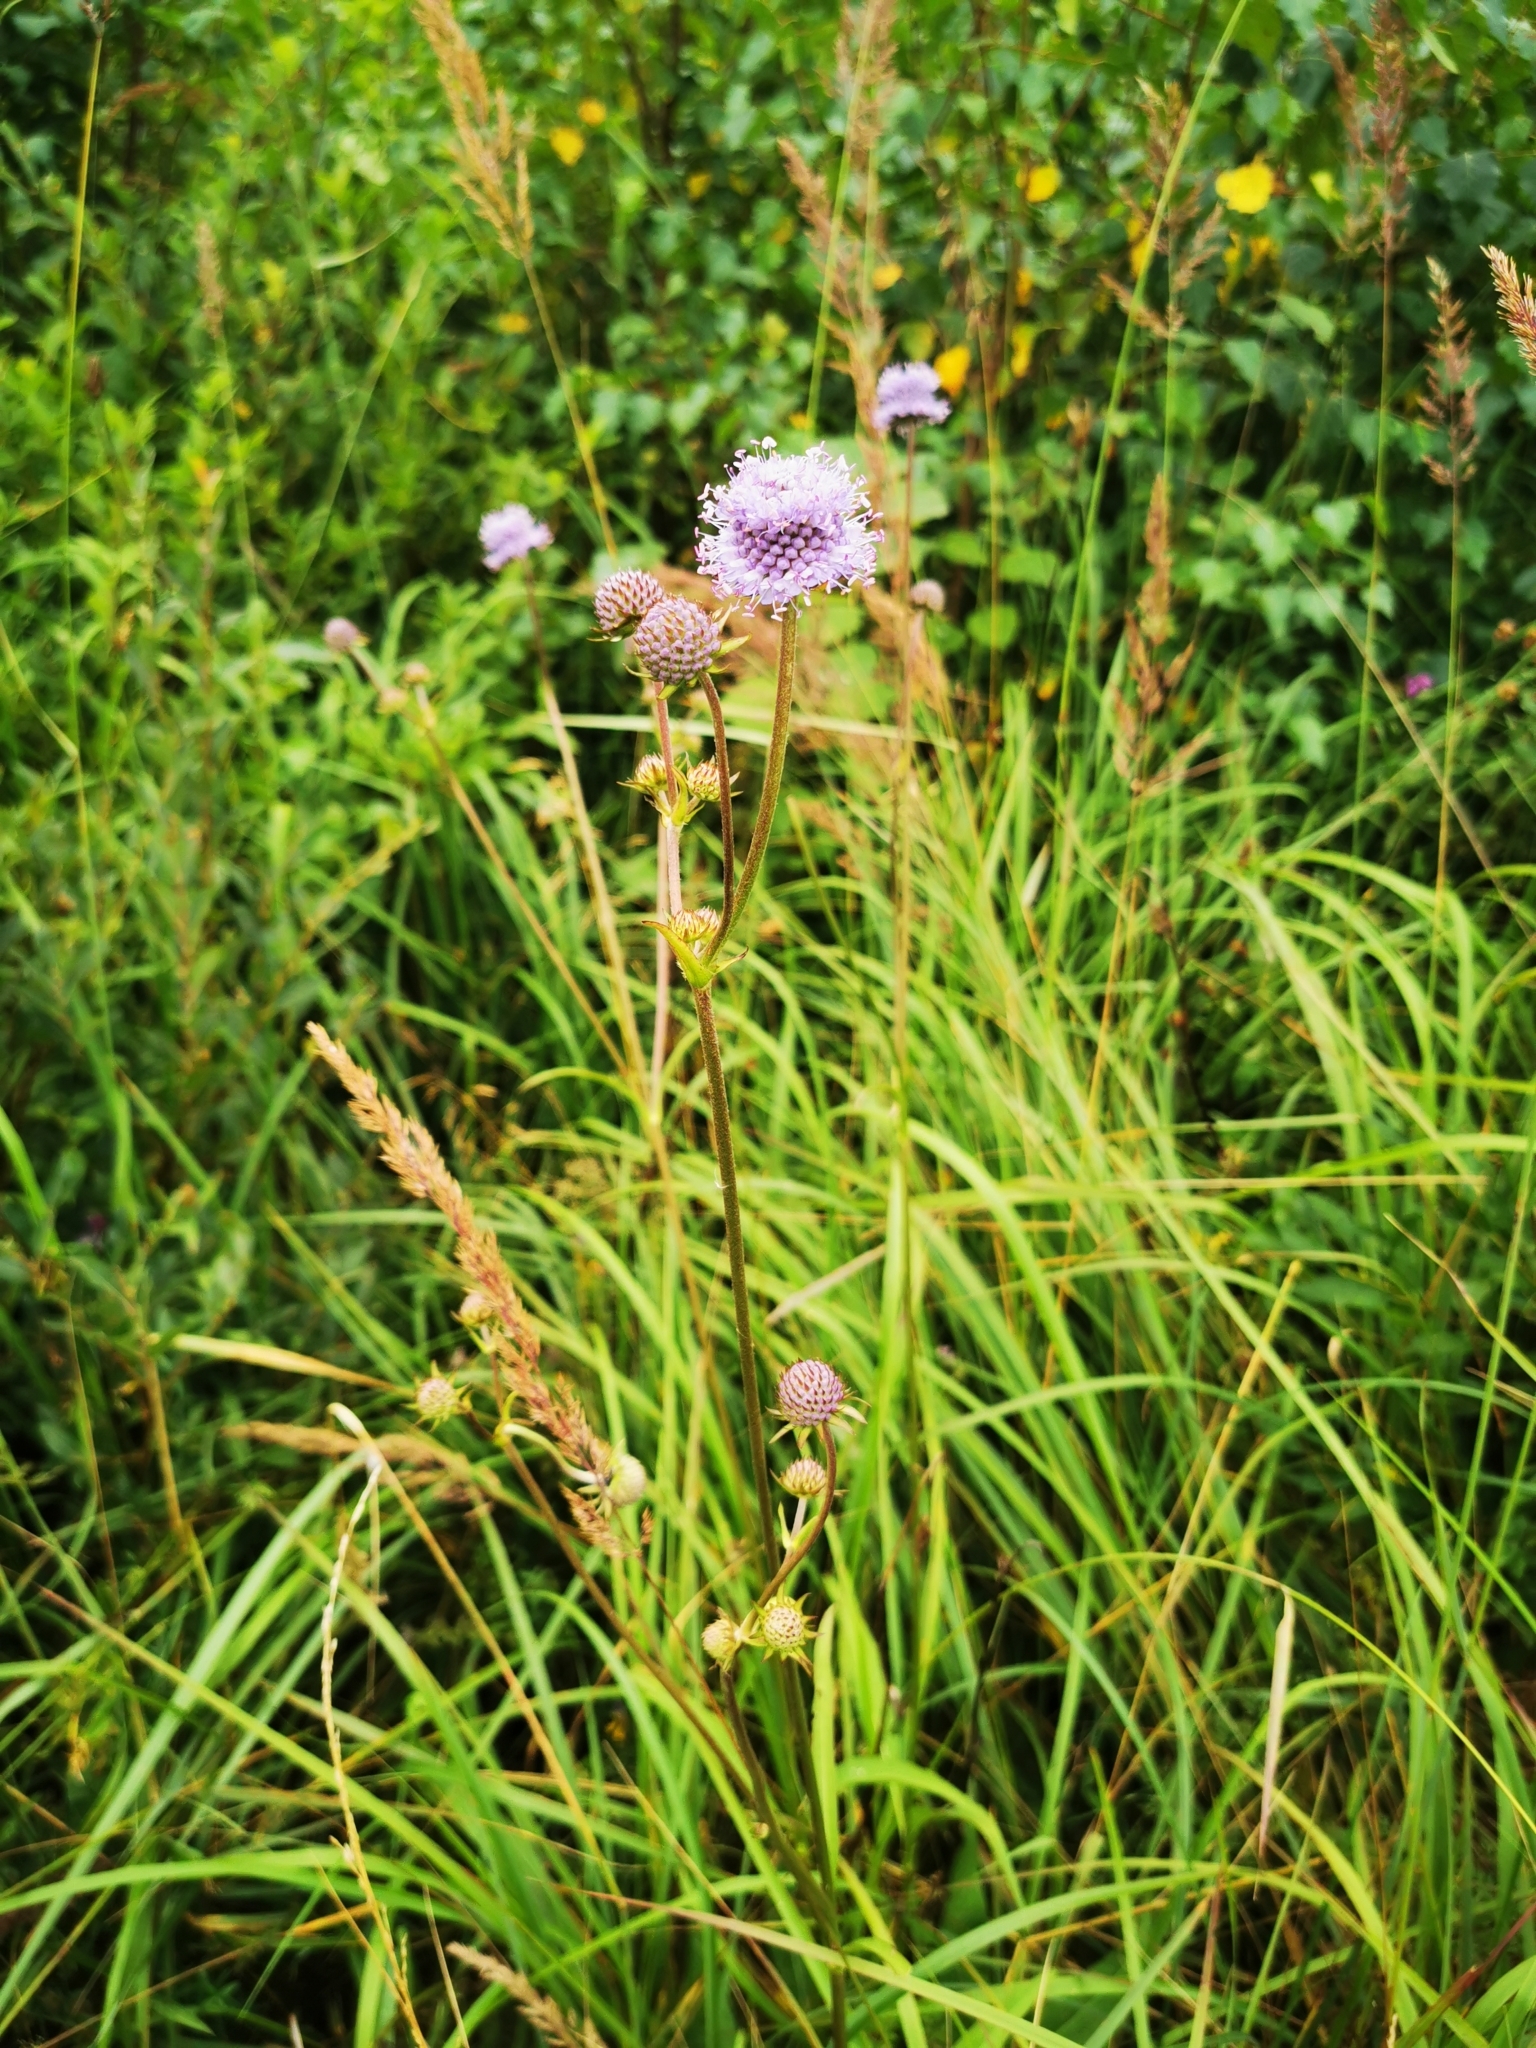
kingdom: Plantae
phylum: Tracheophyta
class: Magnoliopsida
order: Dipsacales
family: Caprifoliaceae
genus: Succisa
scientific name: Succisa pratensis
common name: Devil's-bit
